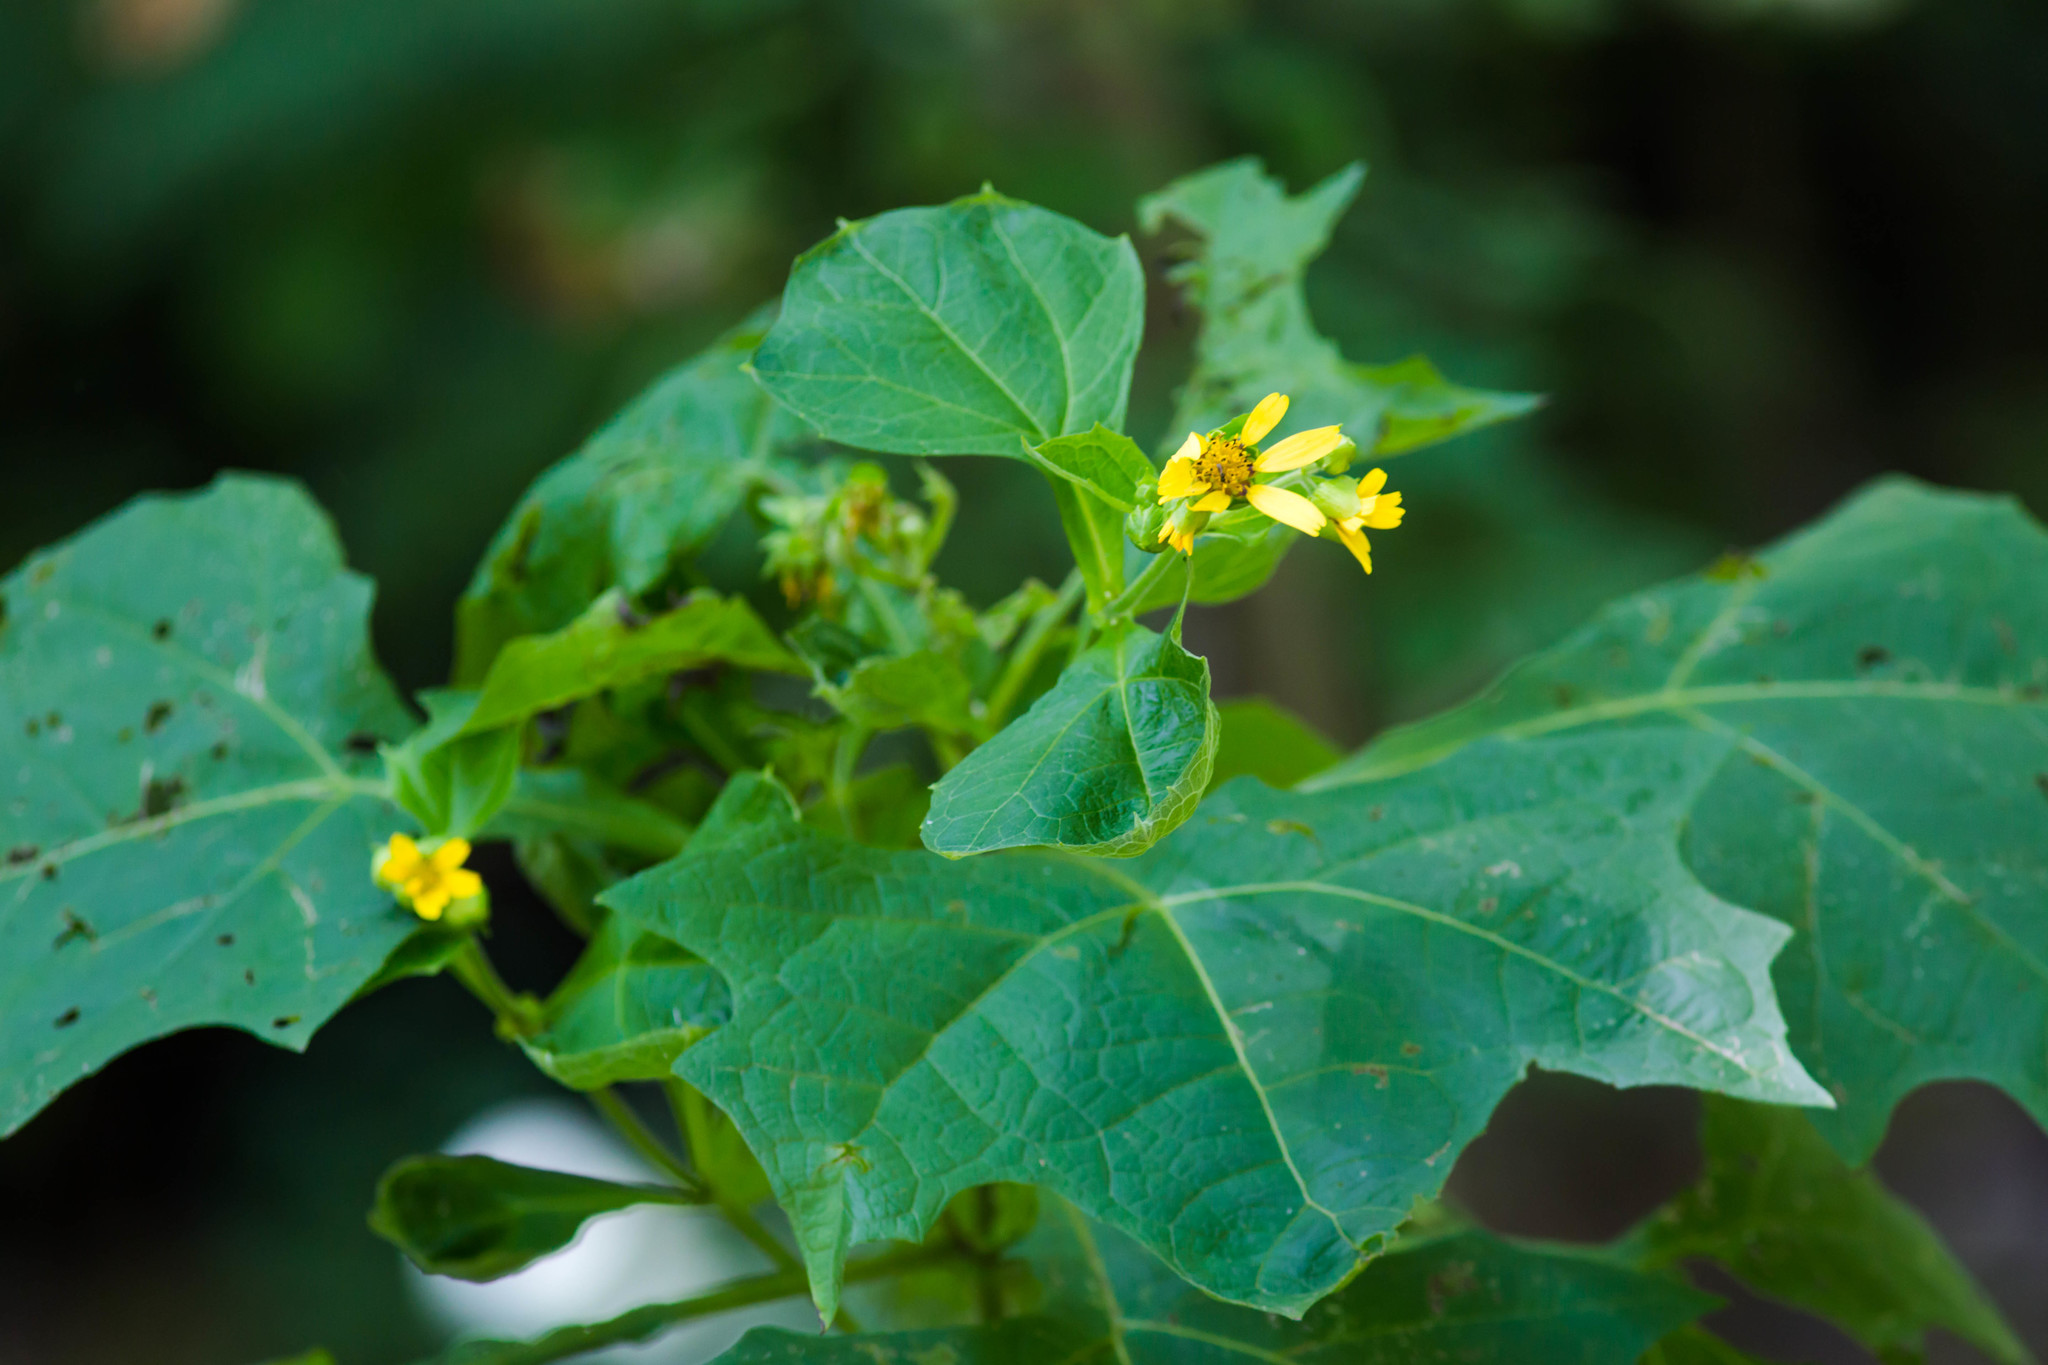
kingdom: Plantae
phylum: Tracheophyta
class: Magnoliopsida
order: Asterales
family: Asteraceae
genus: Smallanthus
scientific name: Smallanthus uvedalia
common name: Bear's-foot
